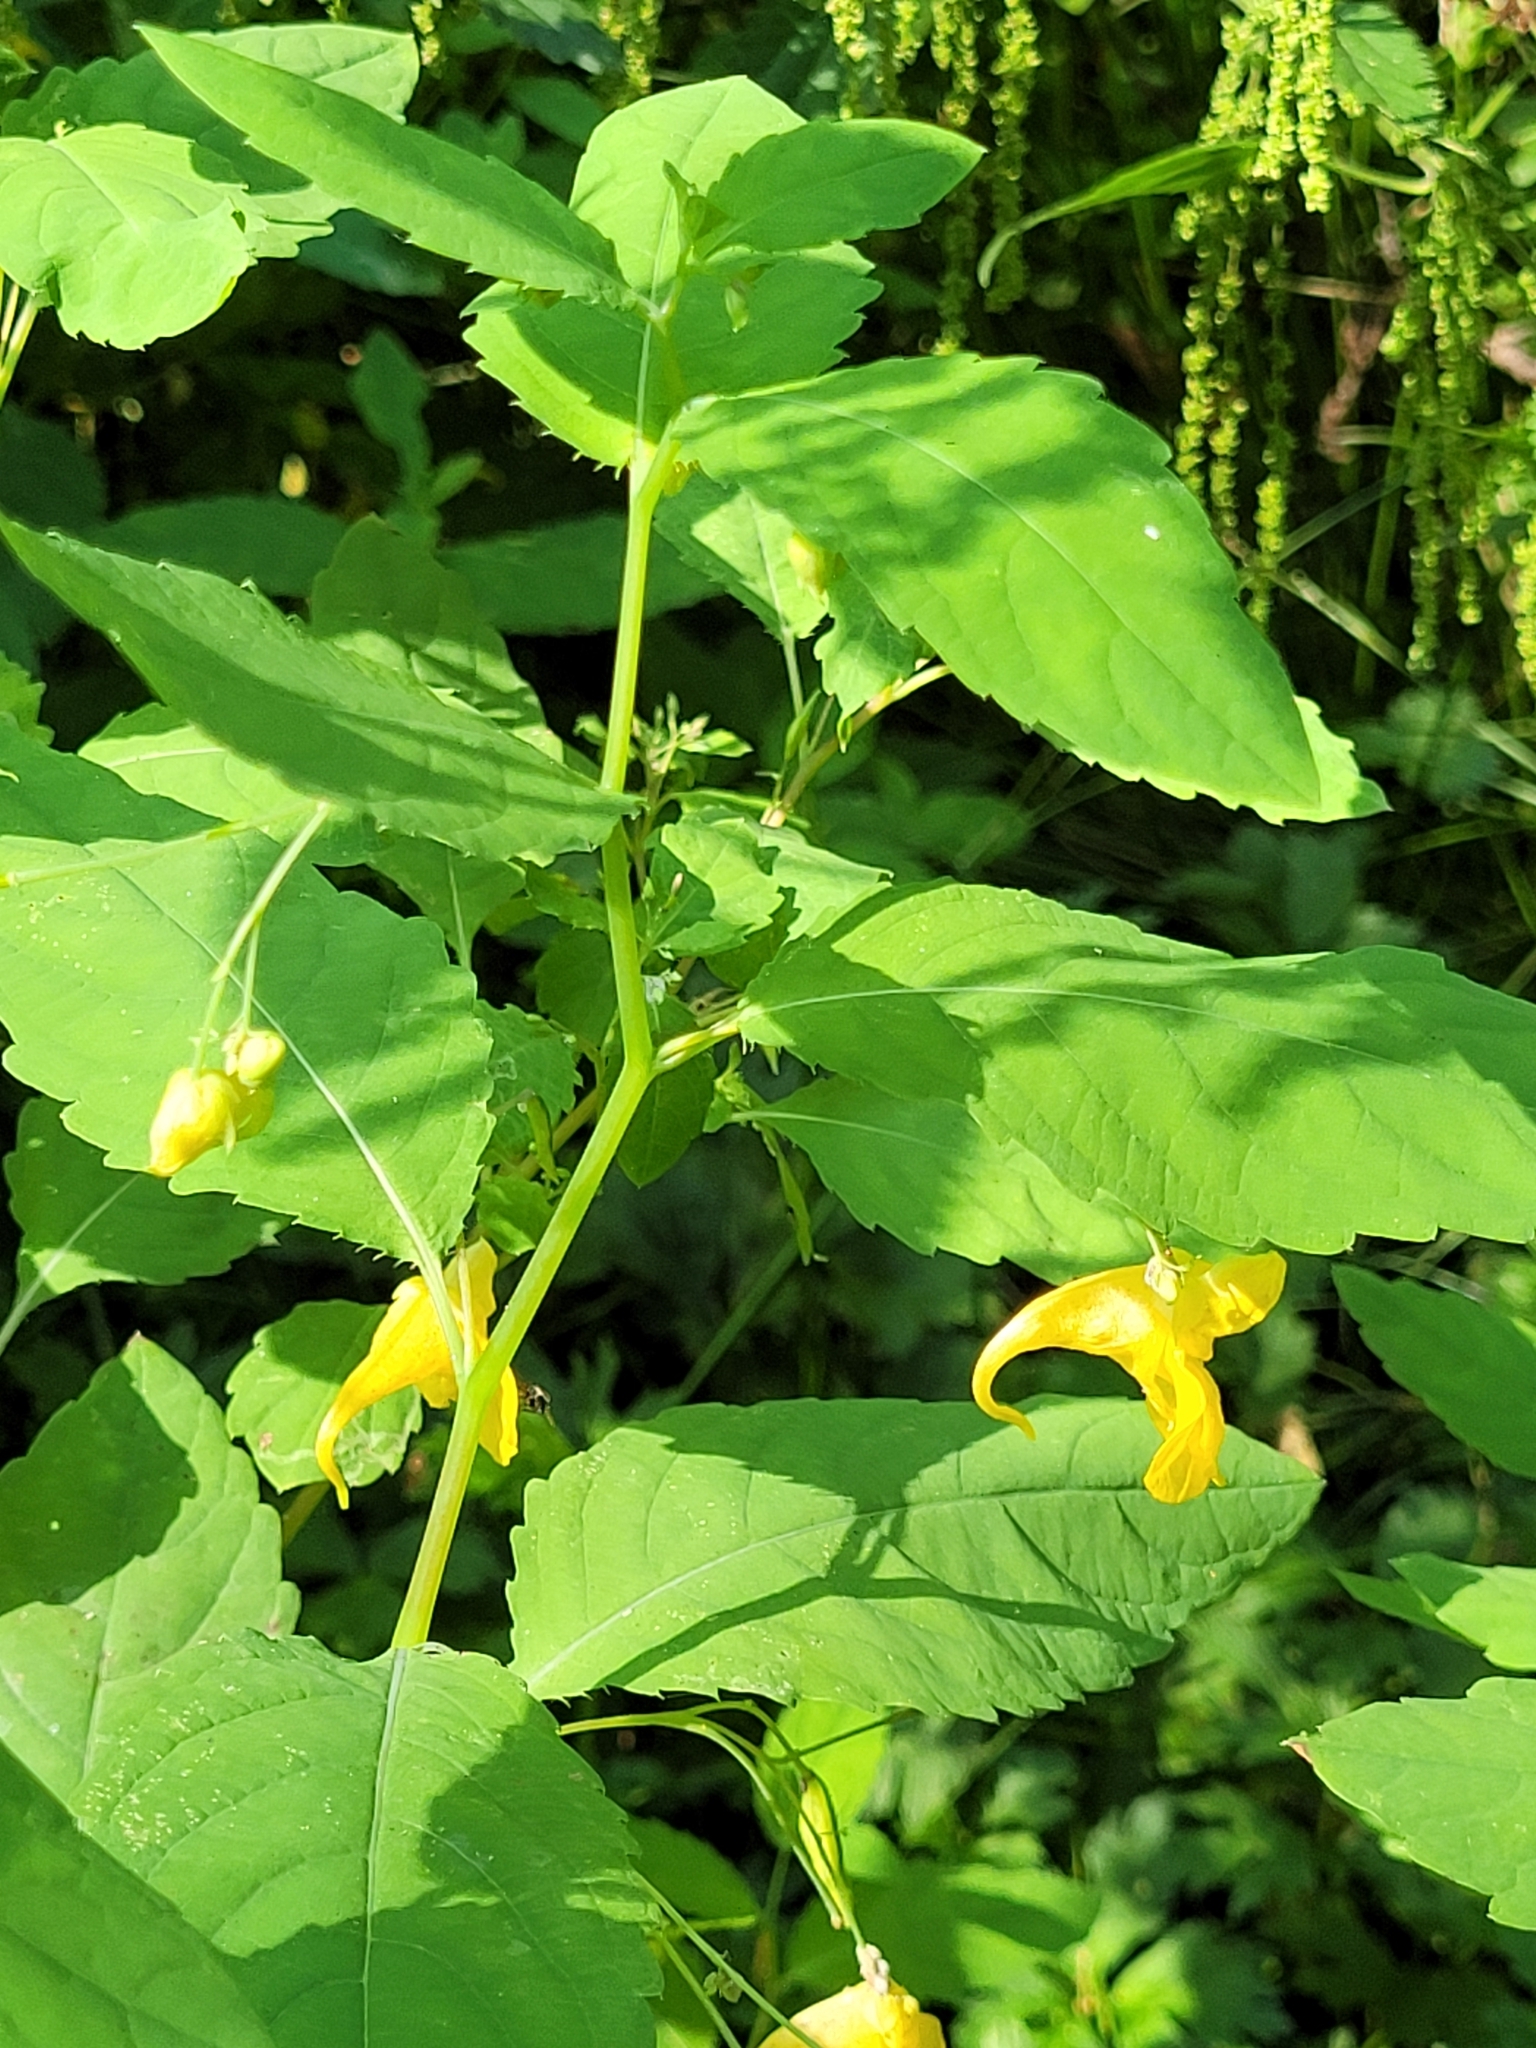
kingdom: Plantae
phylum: Tracheophyta
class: Magnoliopsida
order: Ericales
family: Balsaminaceae
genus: Impatiens
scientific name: Impatiens noli-tangere
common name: Touch-me-not balsam
